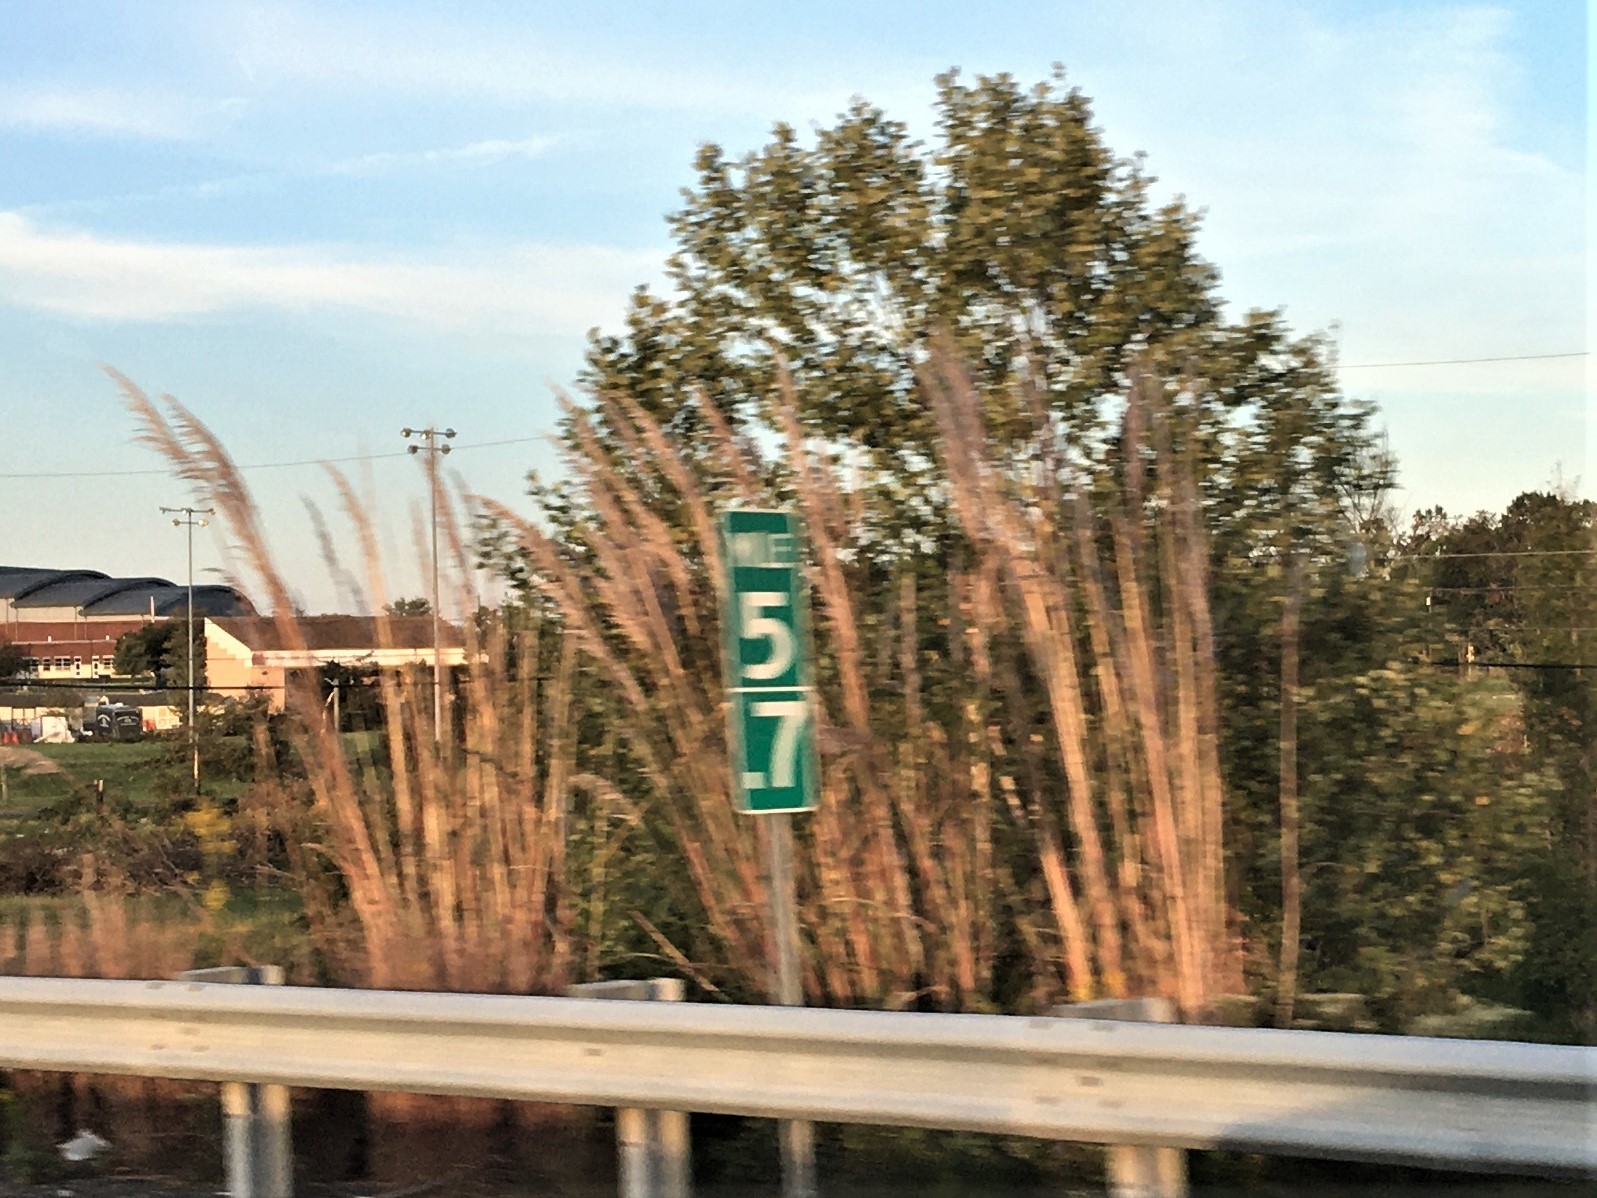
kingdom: Plantae
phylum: Tracheophyta
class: Liliopsida
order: Poales
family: Poaceae
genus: Tripidium
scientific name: Tripidium ravennae
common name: Ravenna grass
